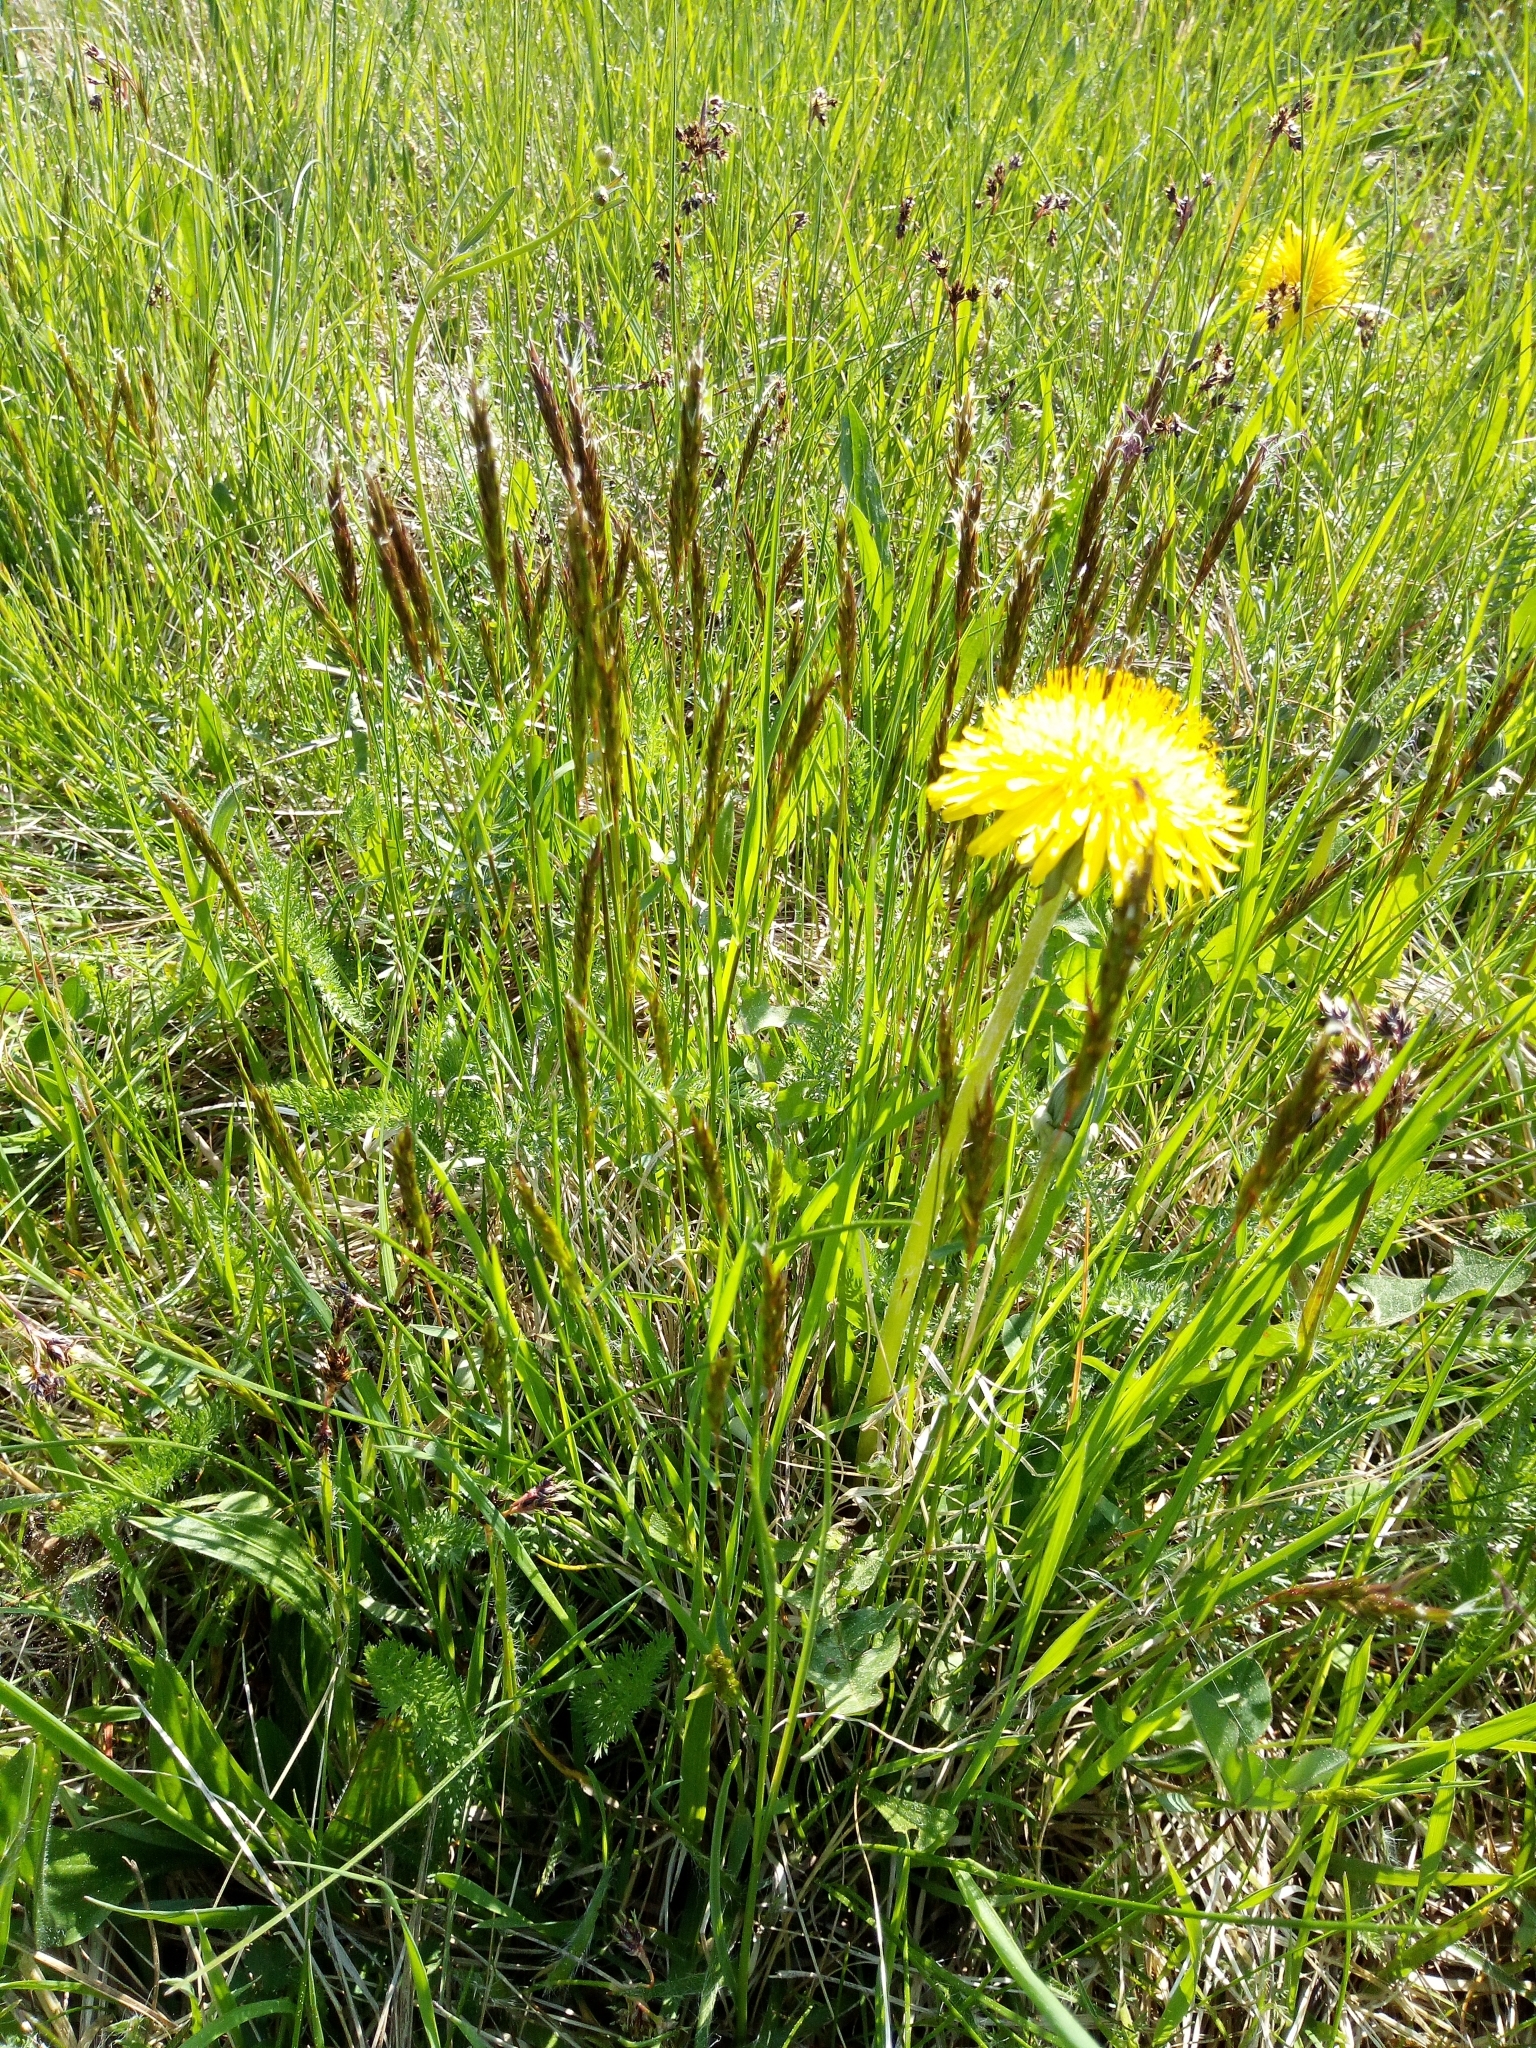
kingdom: Plantae
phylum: Tracheophyta
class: Liliopsida
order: Poales
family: Poaceae
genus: Anthoxanthum
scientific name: Anthoxanthum odoratum
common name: Sweet vernalgrass
